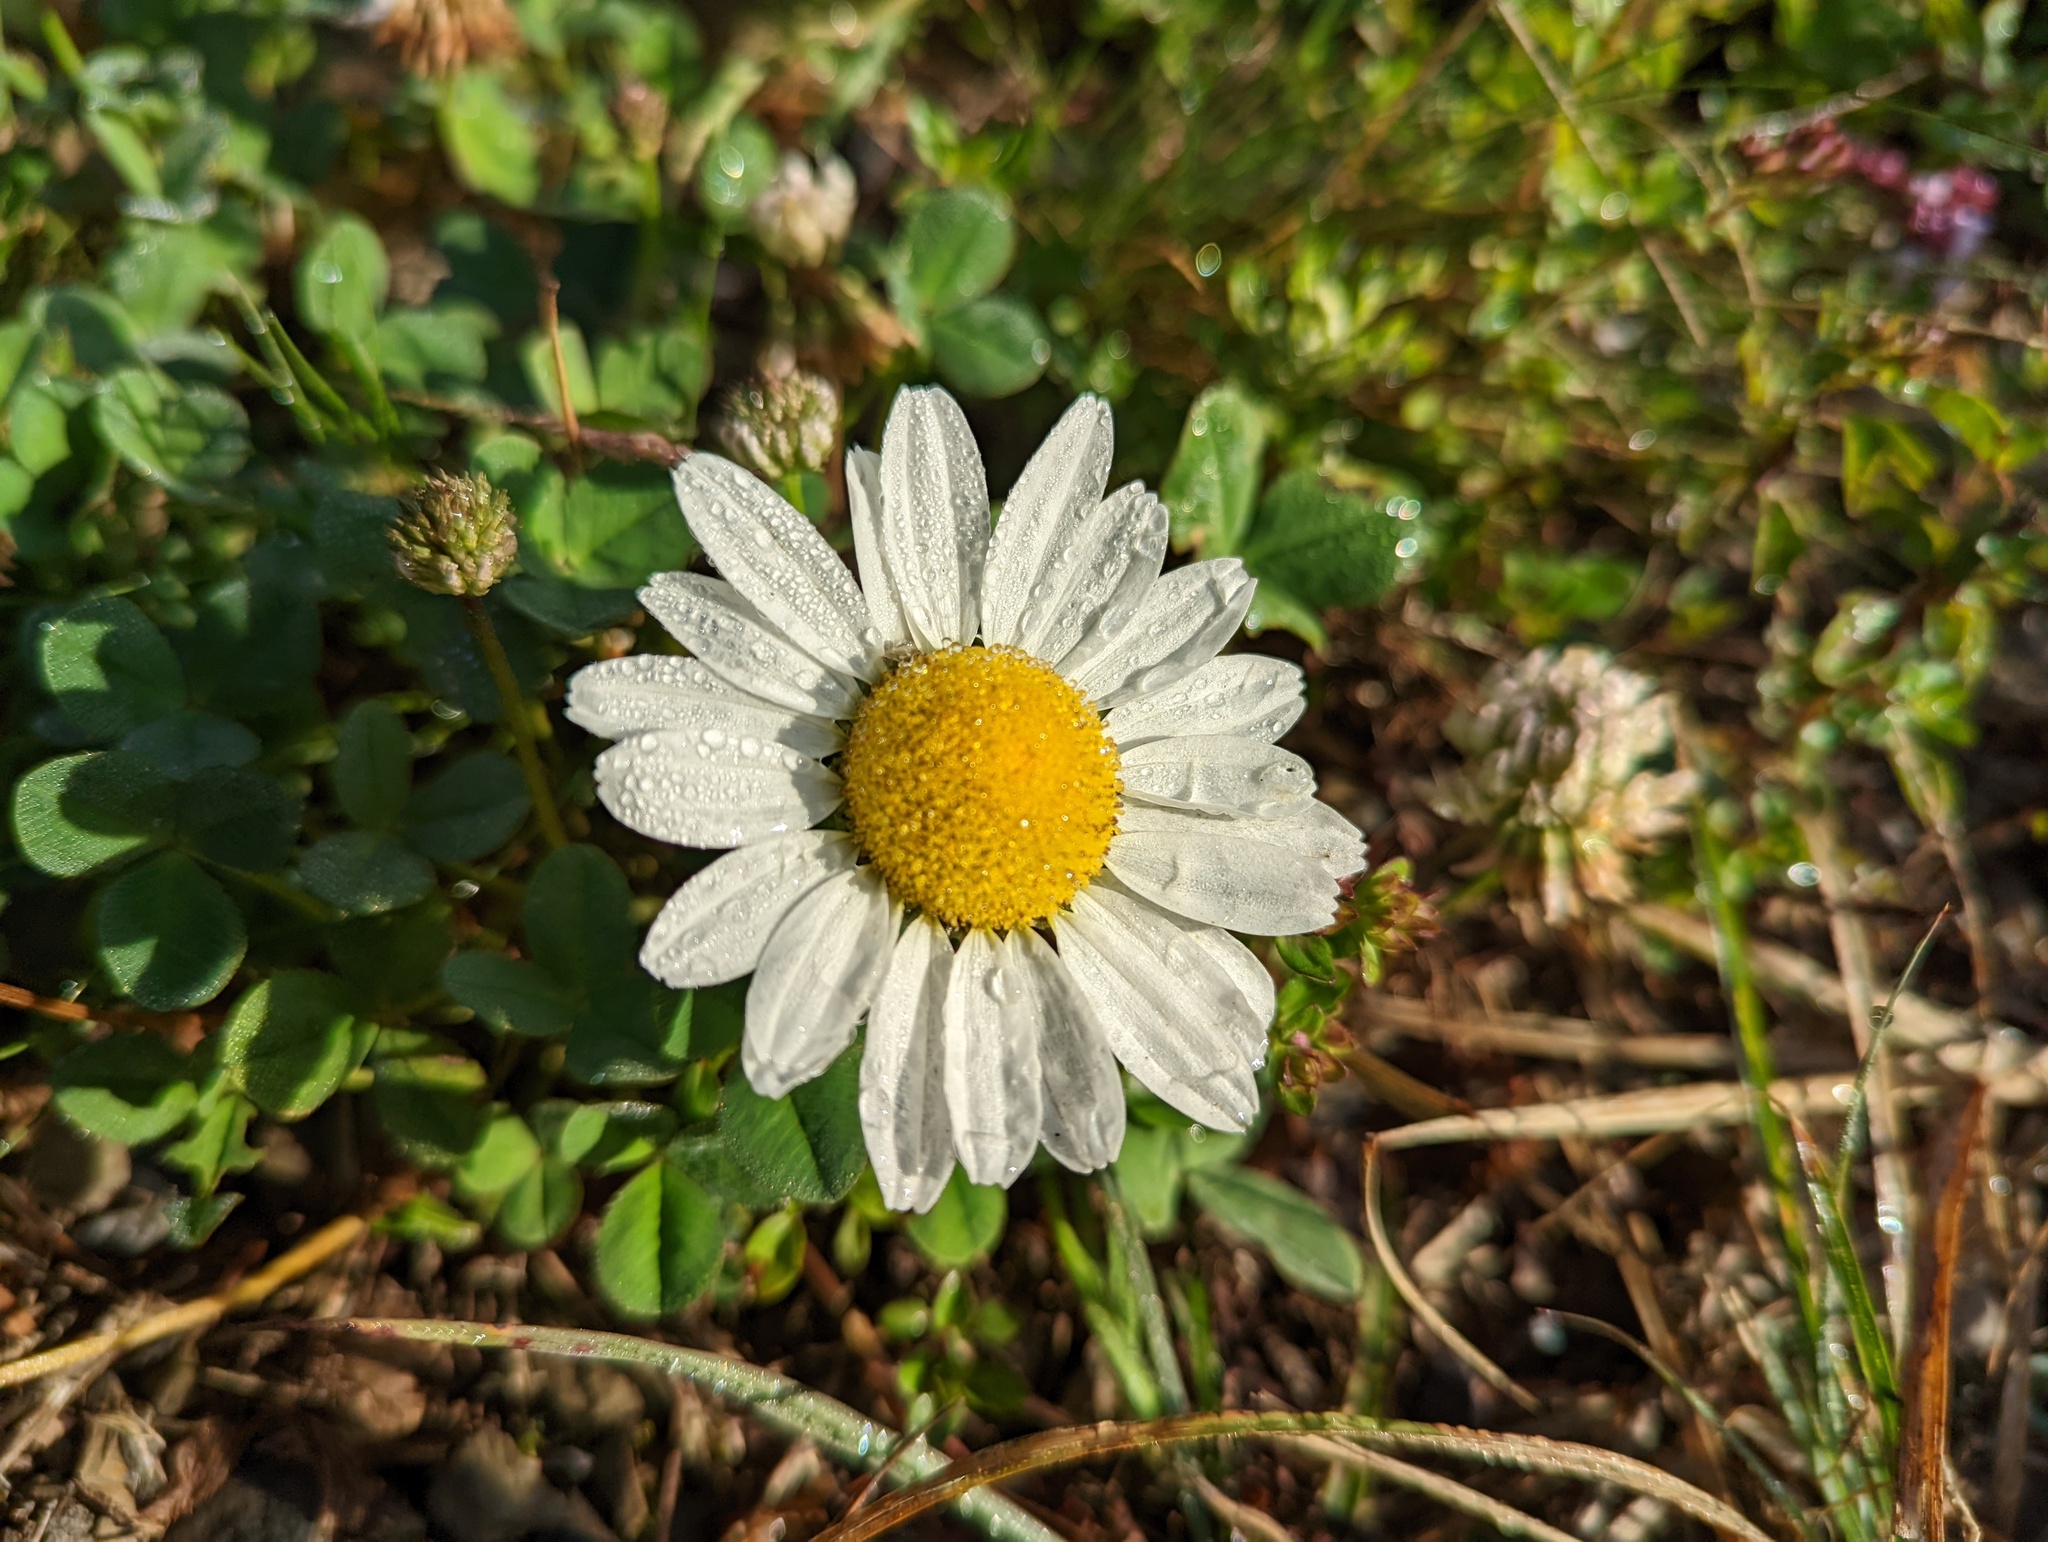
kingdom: Plantae
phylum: Tracheophyta
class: Magnoliopsida
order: Asterales
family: Asteraceae
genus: Leucanthemum
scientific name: Leucanthemum vulgare
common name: Oxeye daisy
